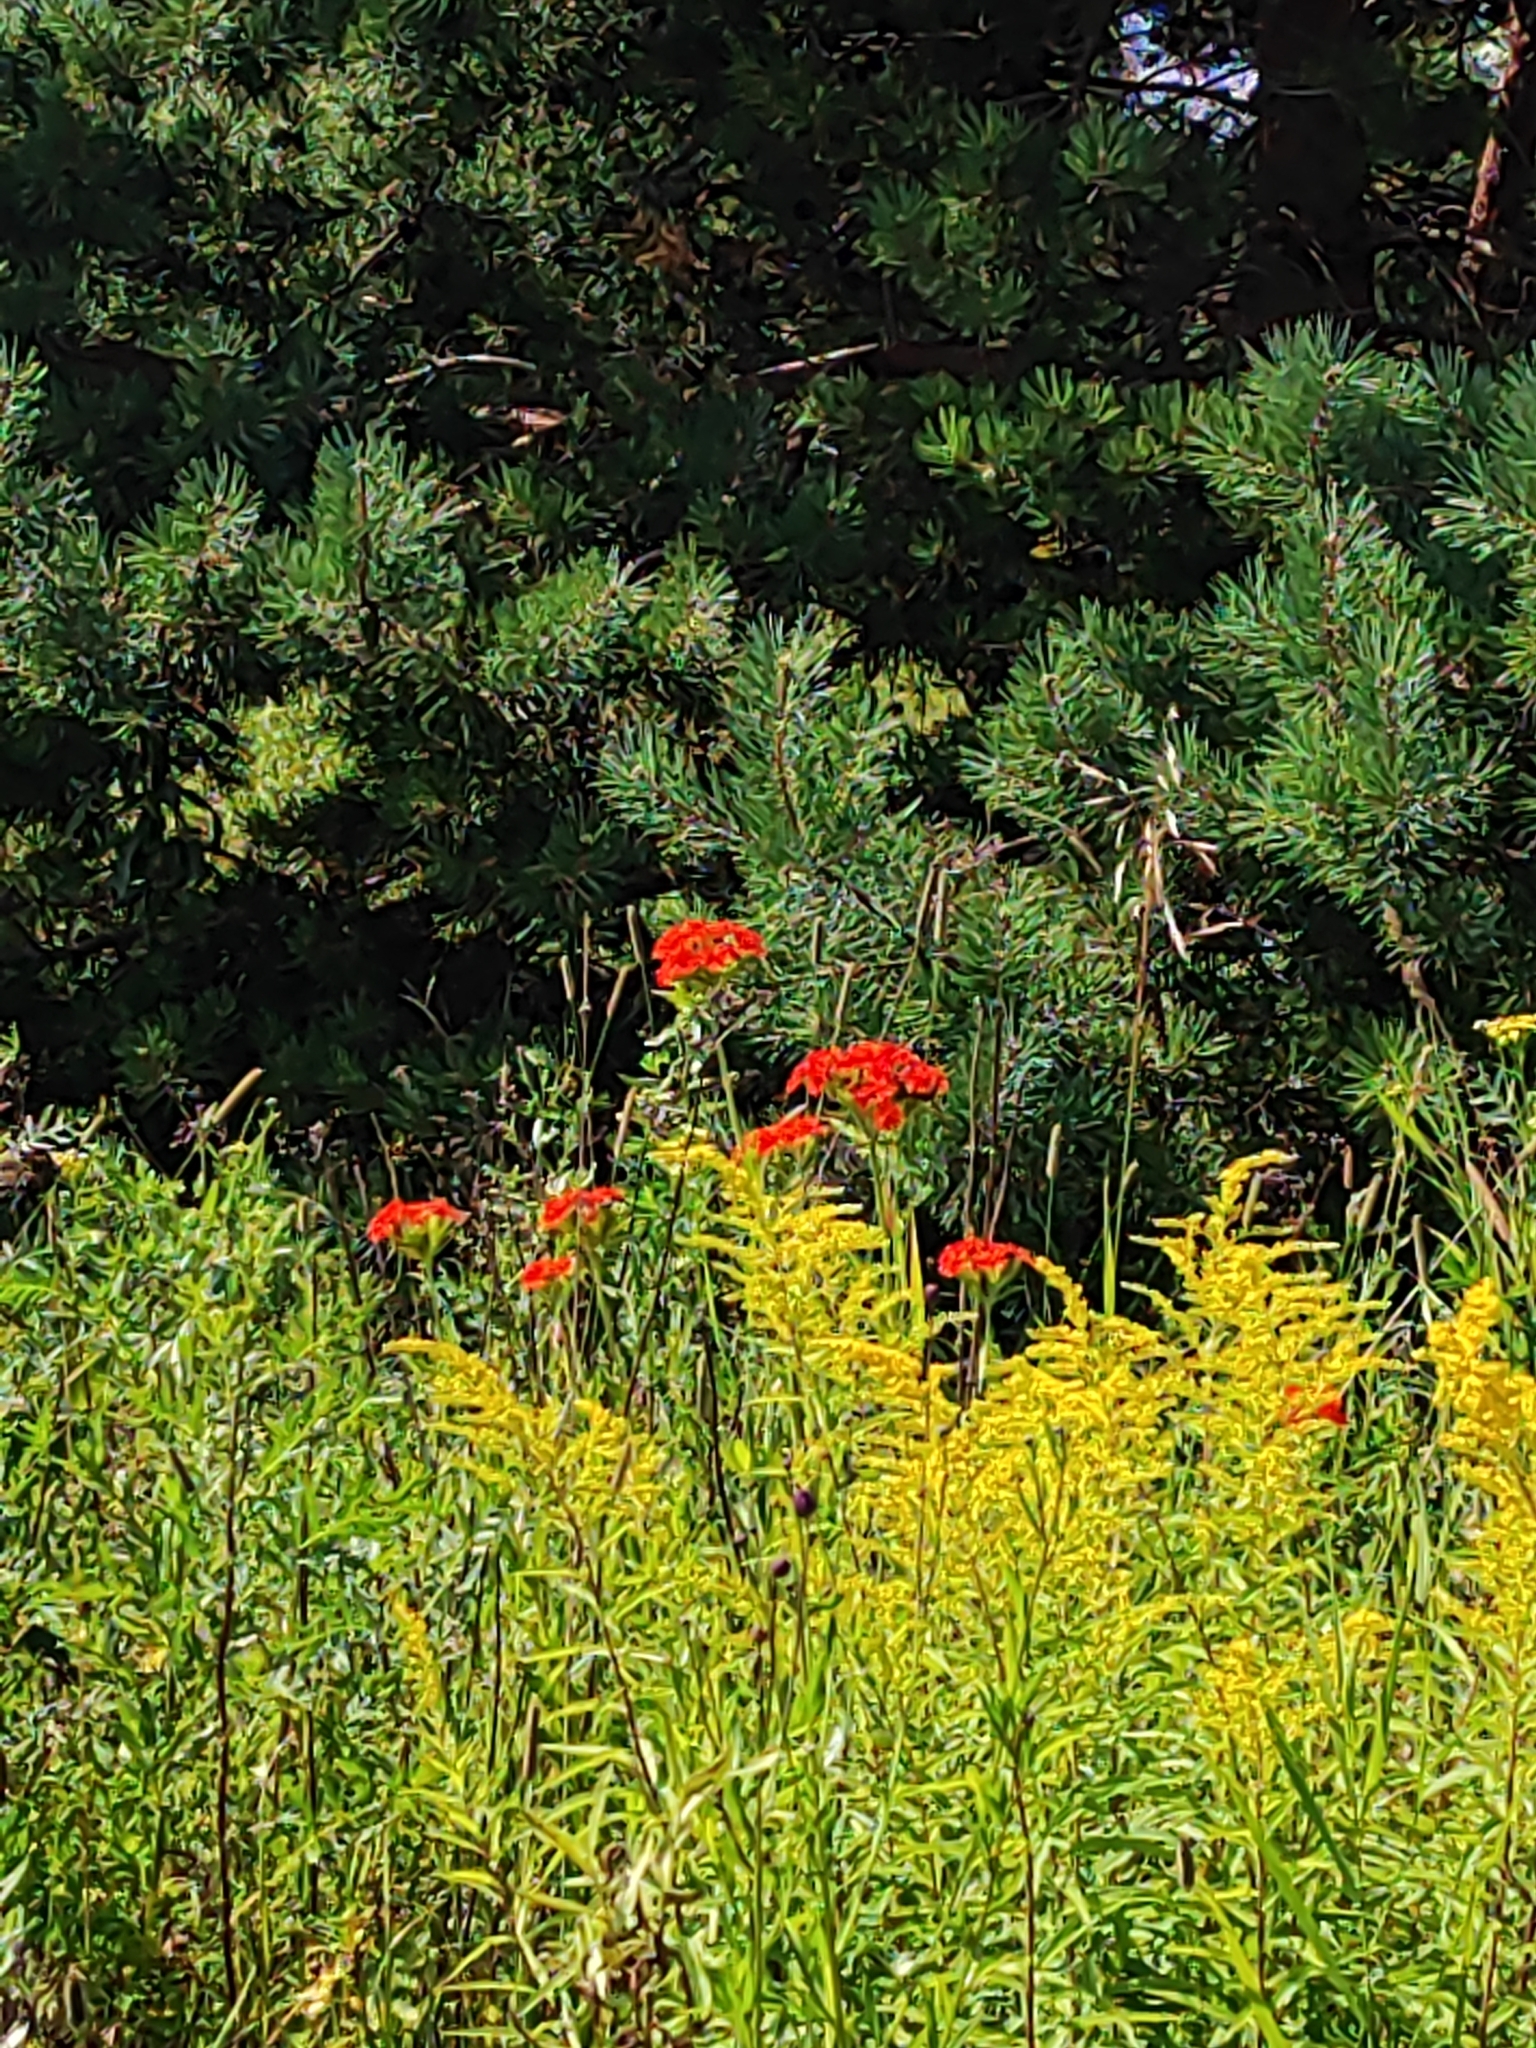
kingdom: Plantae
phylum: Tracheophyta
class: Magnoliopsida
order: Caryophyllales
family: Caryophyllaceae
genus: Silene
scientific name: Silene chalcedonica
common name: Maltese-cross
